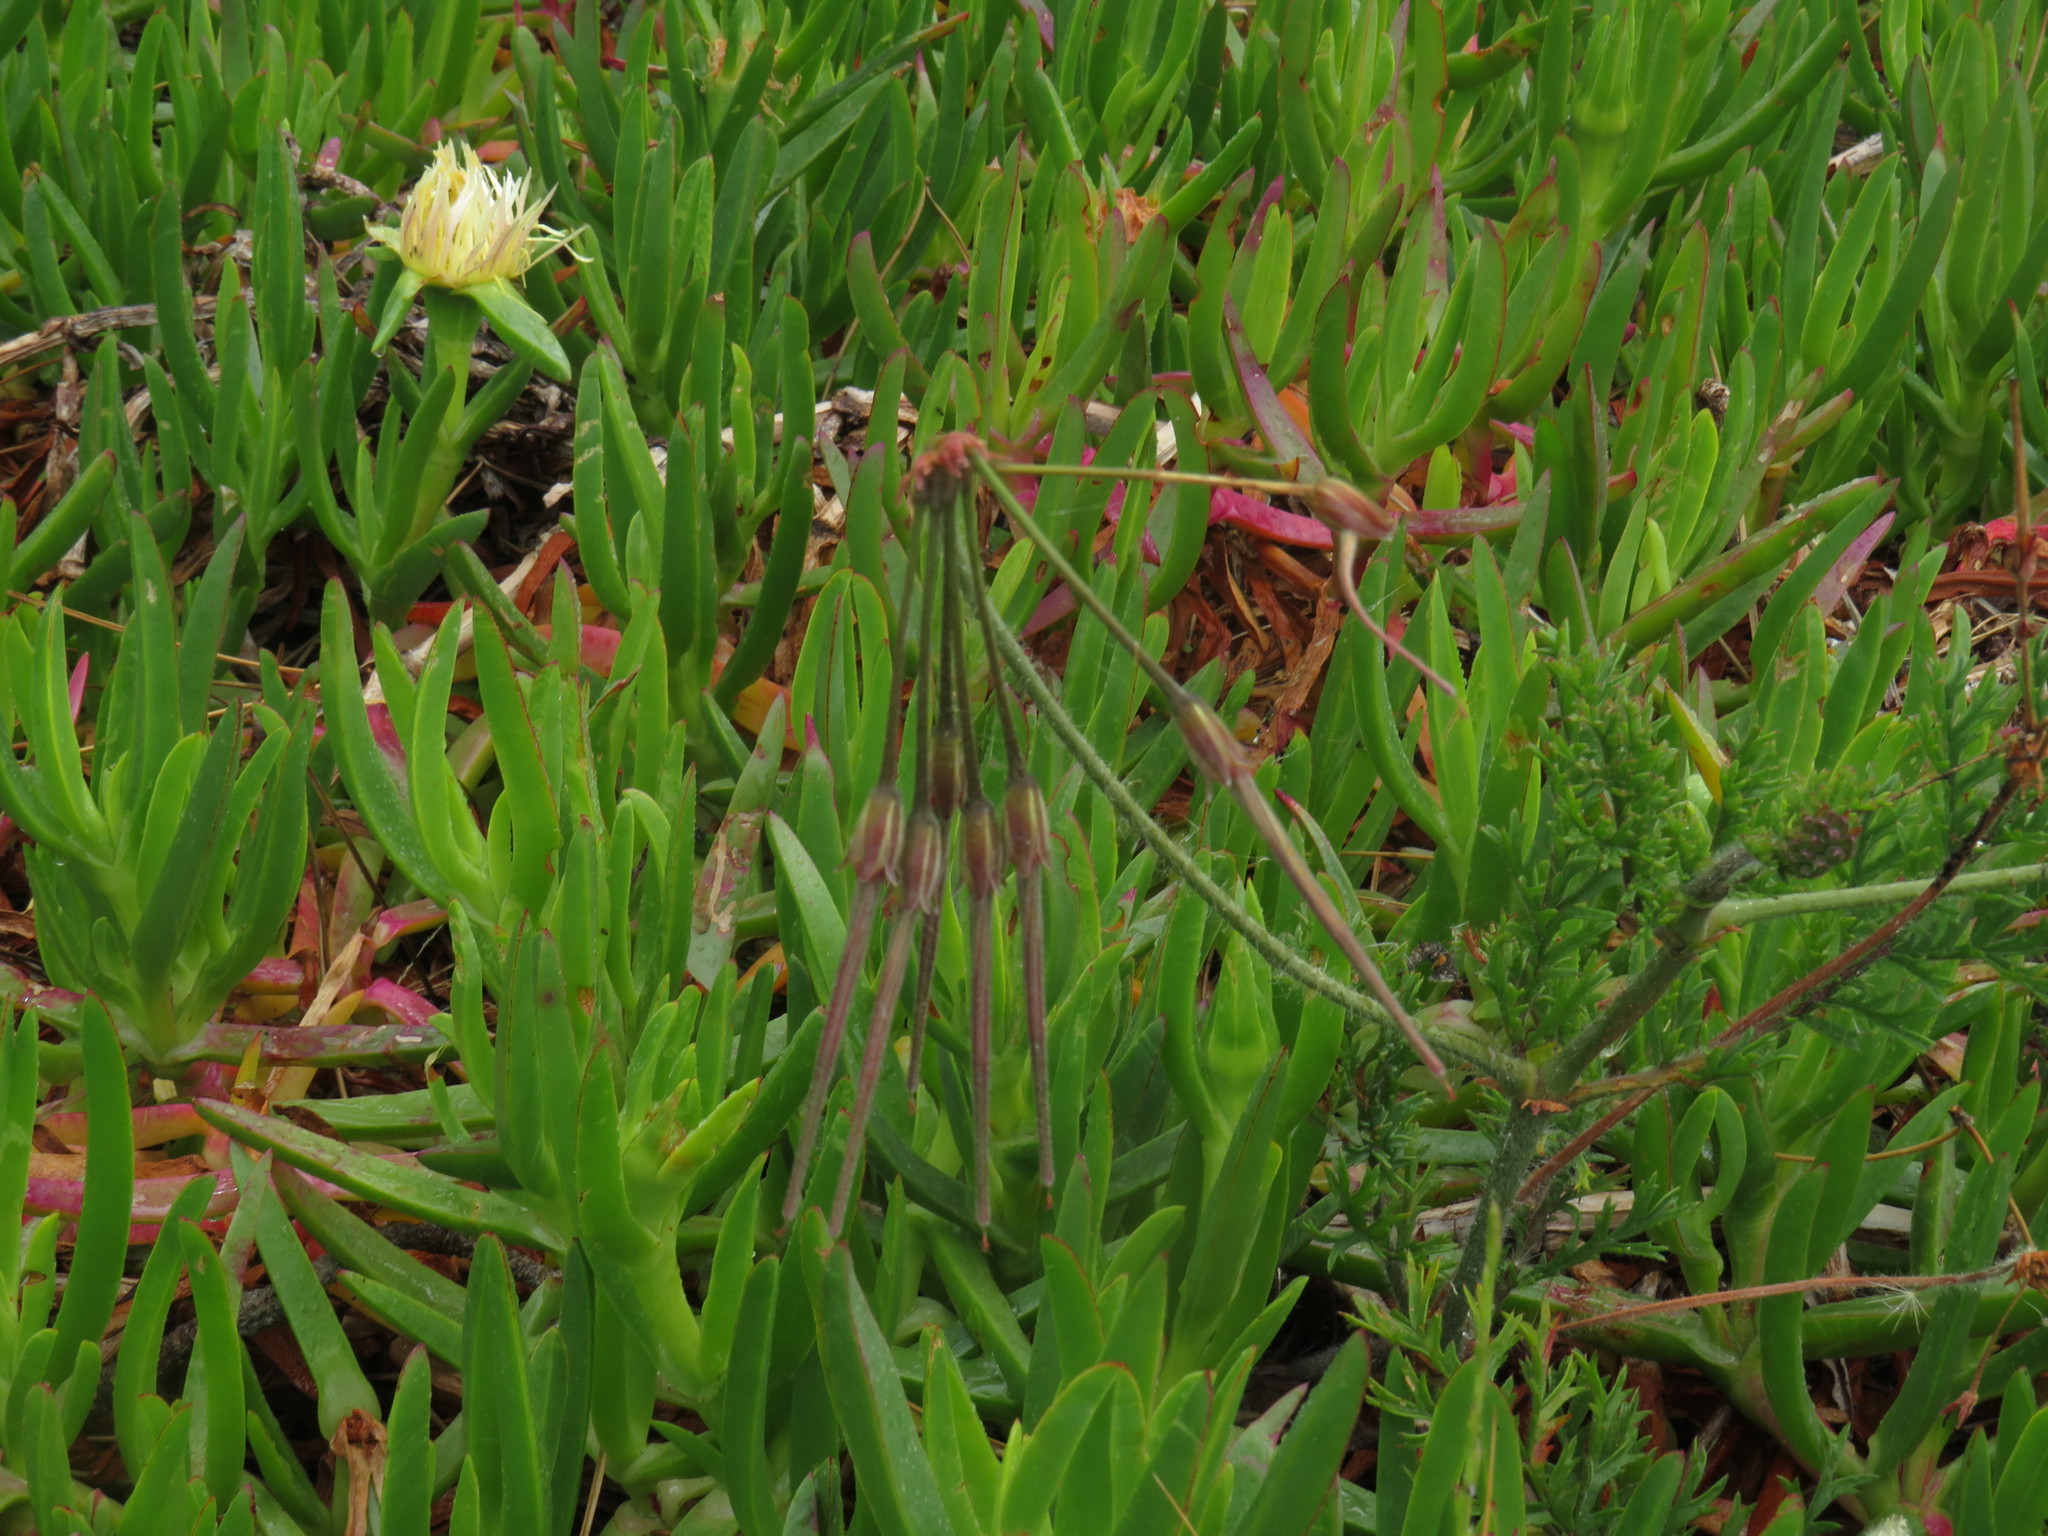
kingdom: Plantae
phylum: Tracheophyta
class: Magnoliopsida
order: Geraniales
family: Geraniaceae
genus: Pelargonium
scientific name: Pelargonium triste
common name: Night-scent pelargonium
